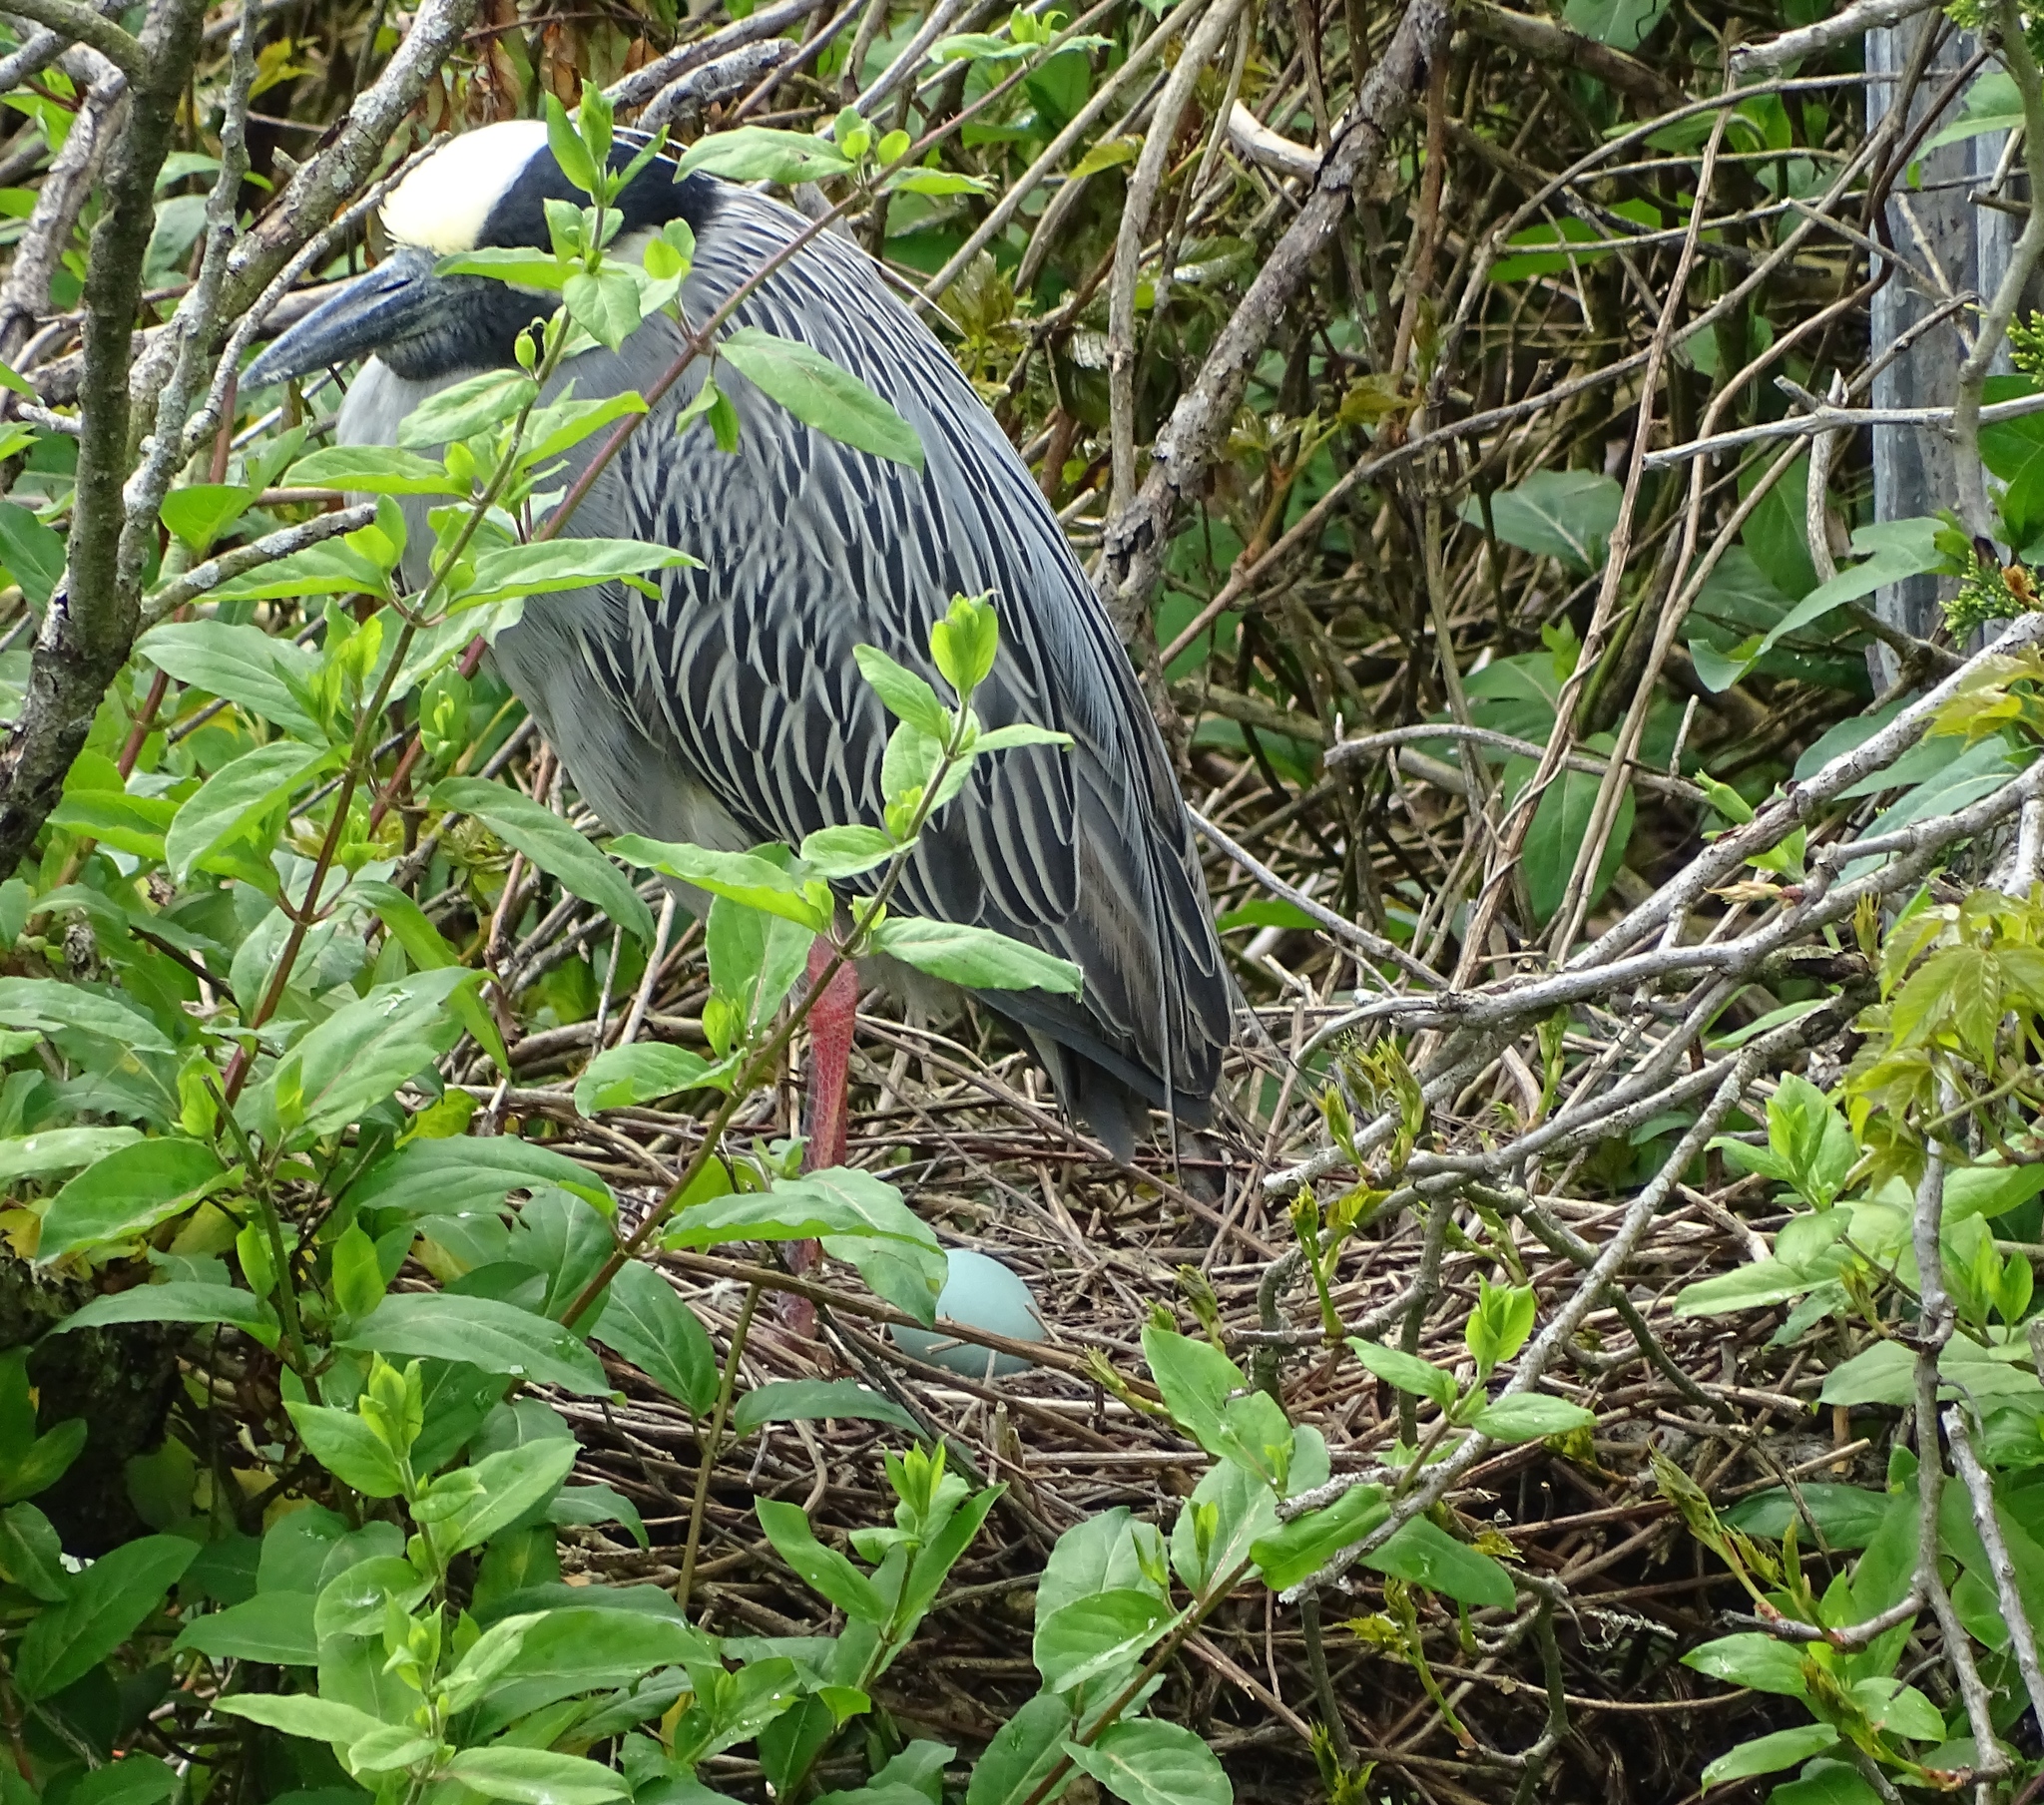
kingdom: Animalia
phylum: Chordata
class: Aves
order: Pelecaniformes
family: Ardeidae
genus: Nyctanassa
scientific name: Nyctanassa violacea
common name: Yellow-crowned night heron
